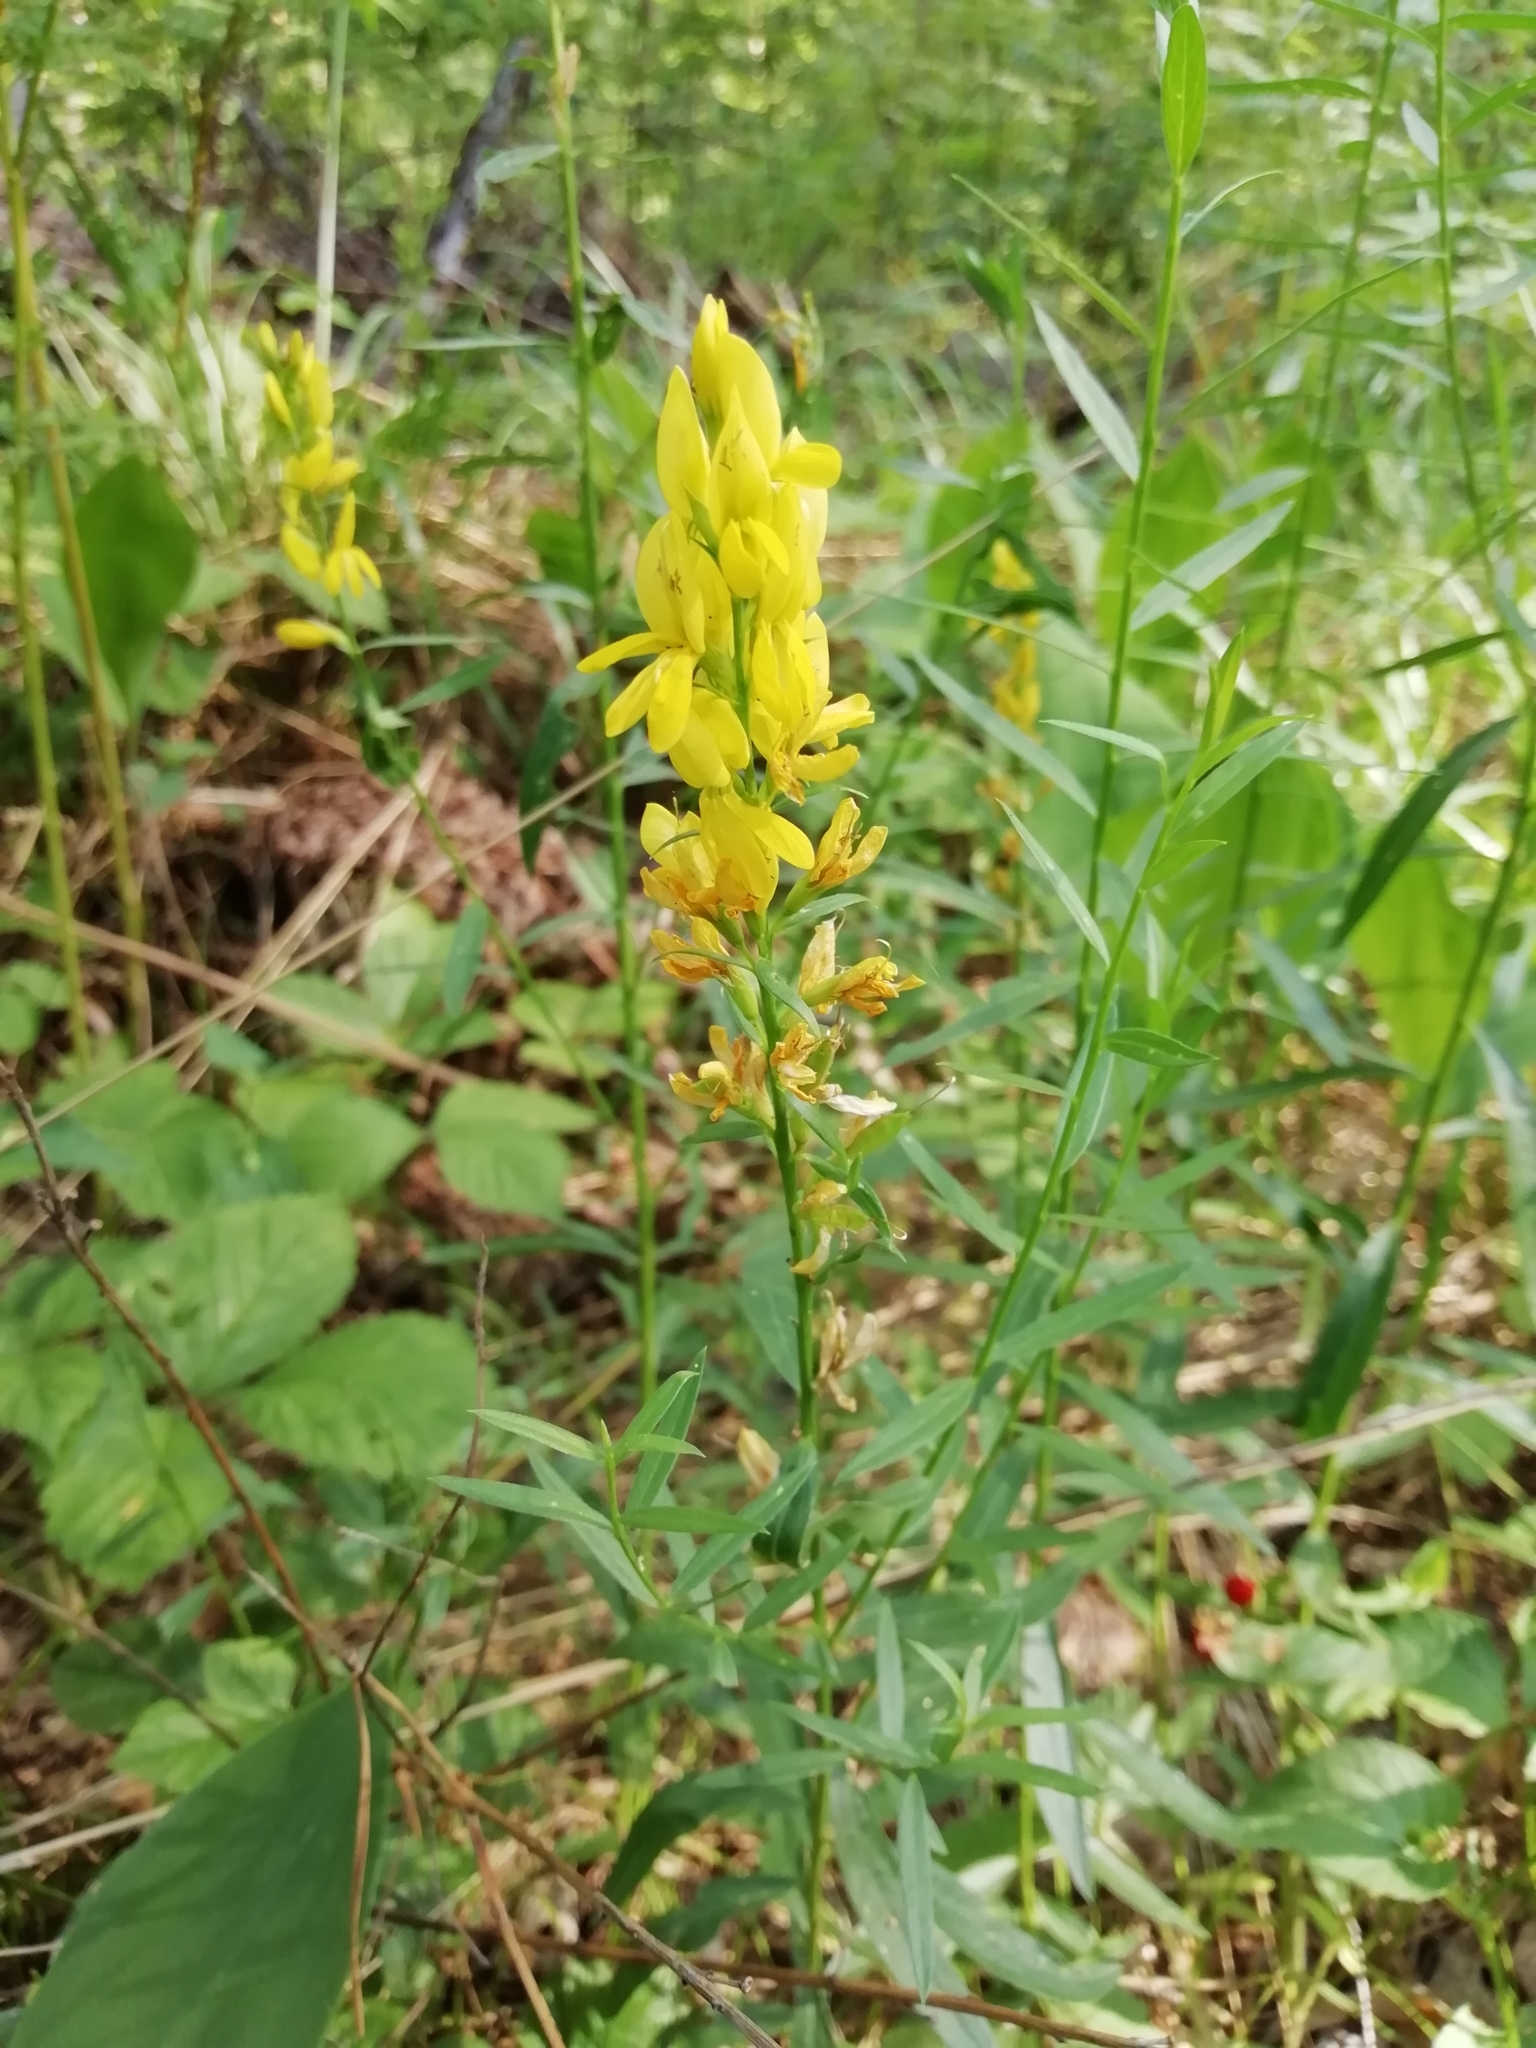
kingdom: Plantae
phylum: Tracheophyta
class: Magnoliopsida
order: Fabales
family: Fabaceae
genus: Genista
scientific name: Genista tinctoria
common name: Dyer's greenweed
